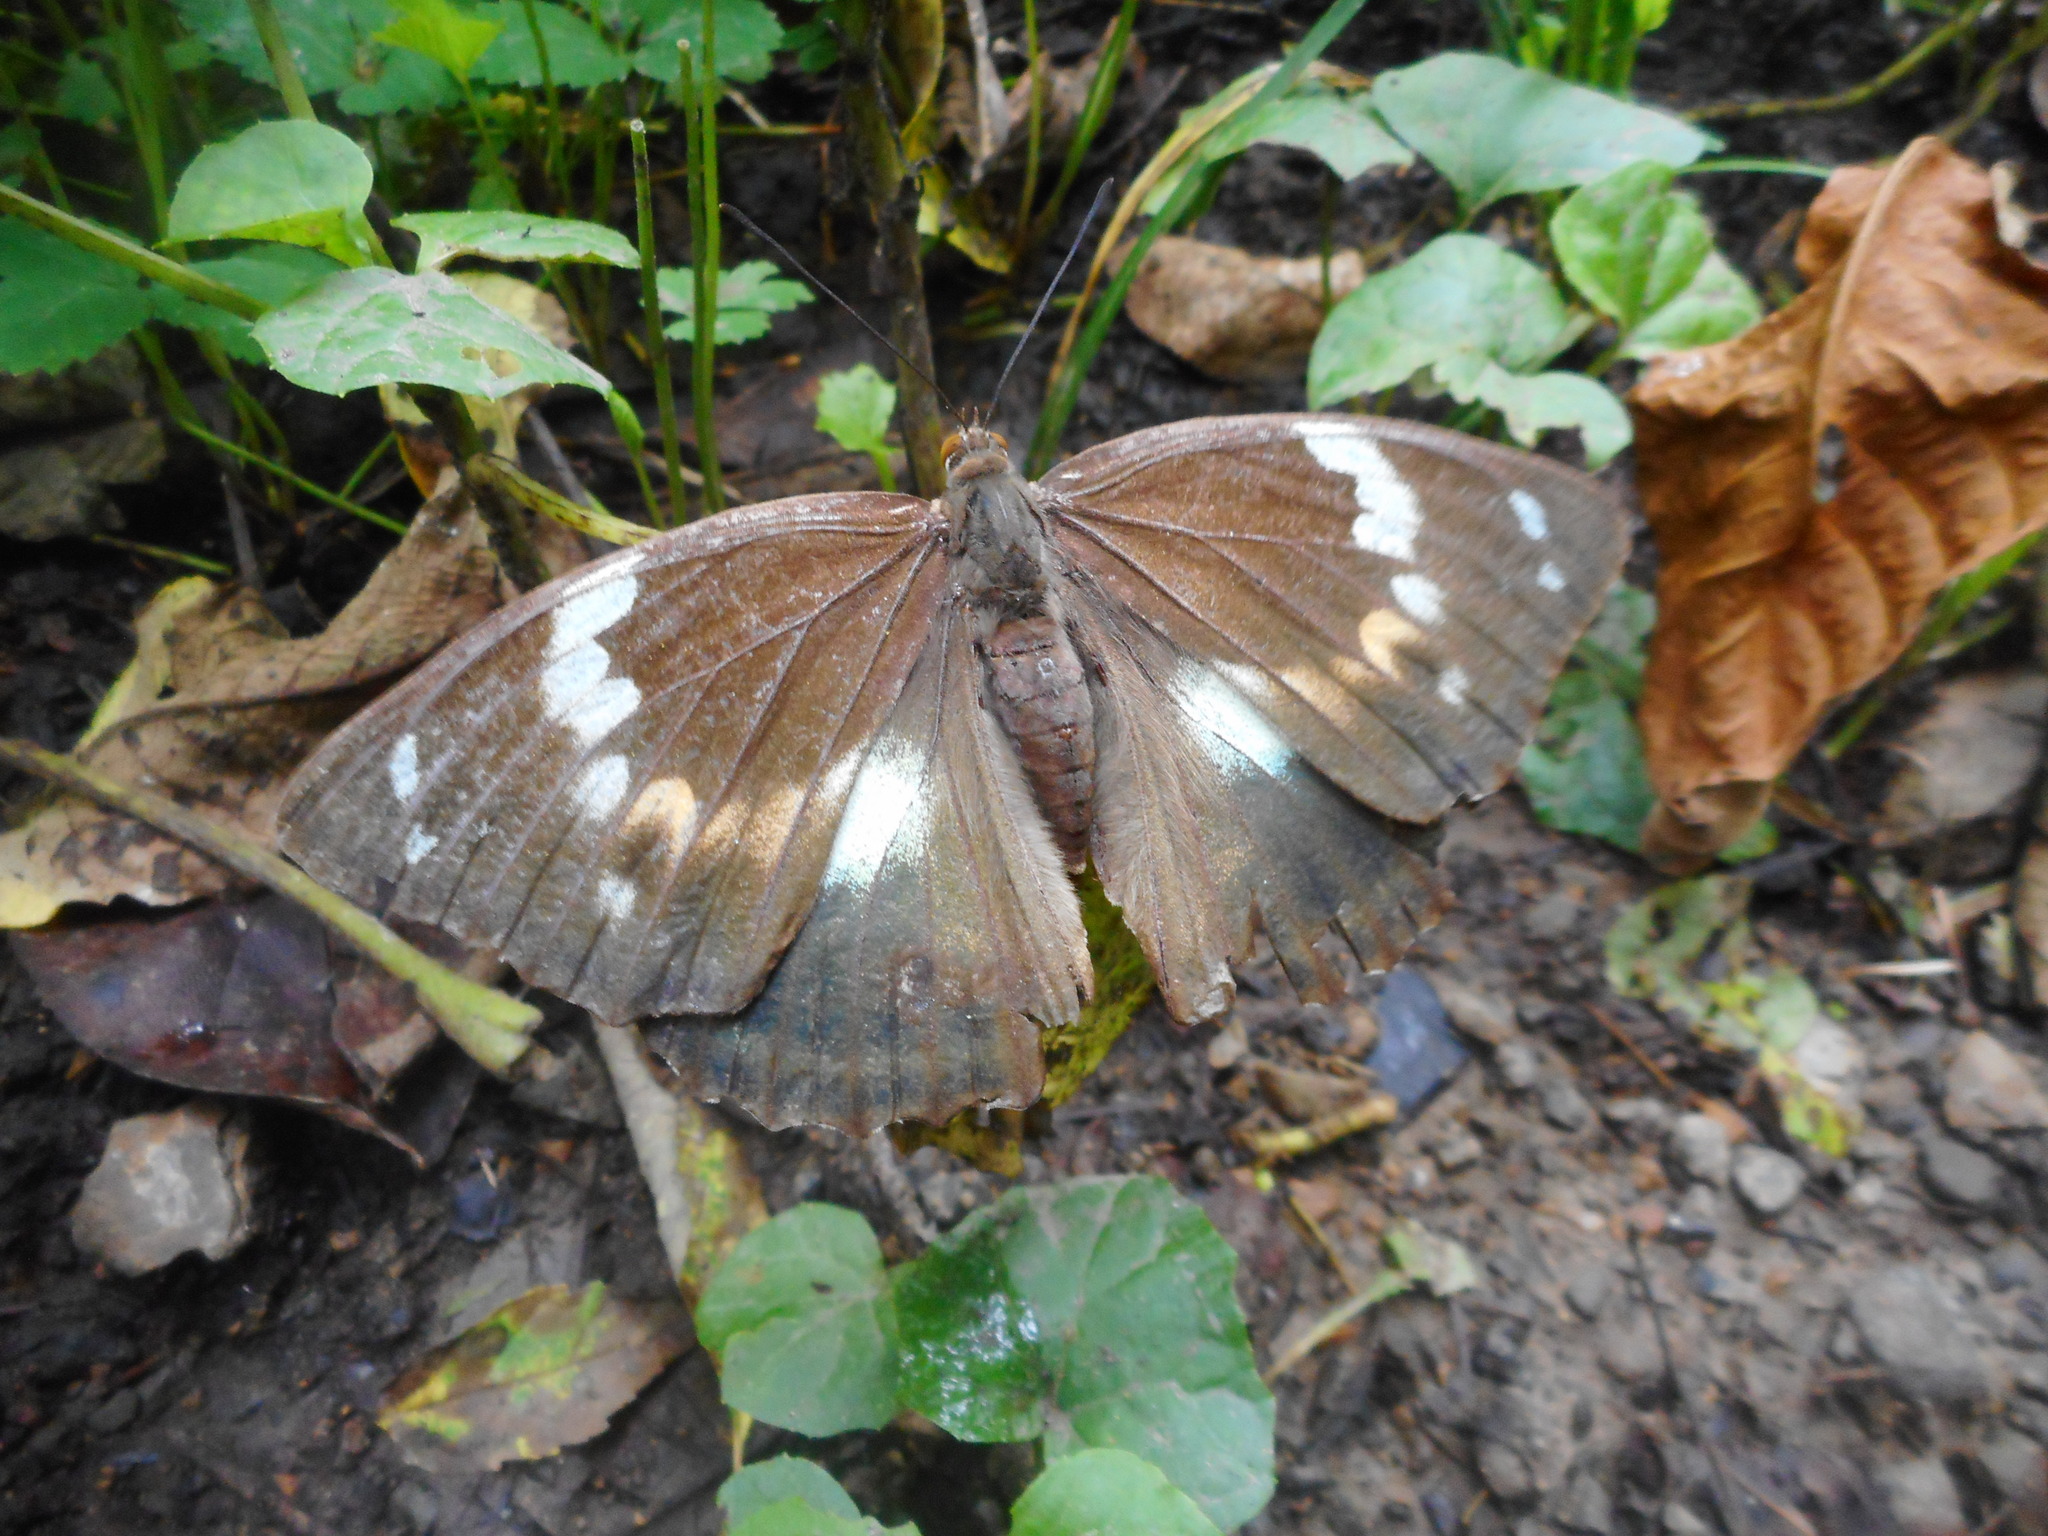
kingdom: Animalia
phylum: Arthropoda
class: Insecta
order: Lepidoptera
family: Nymphalidae
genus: Apatura
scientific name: Apatura Mimathyma schrencki
